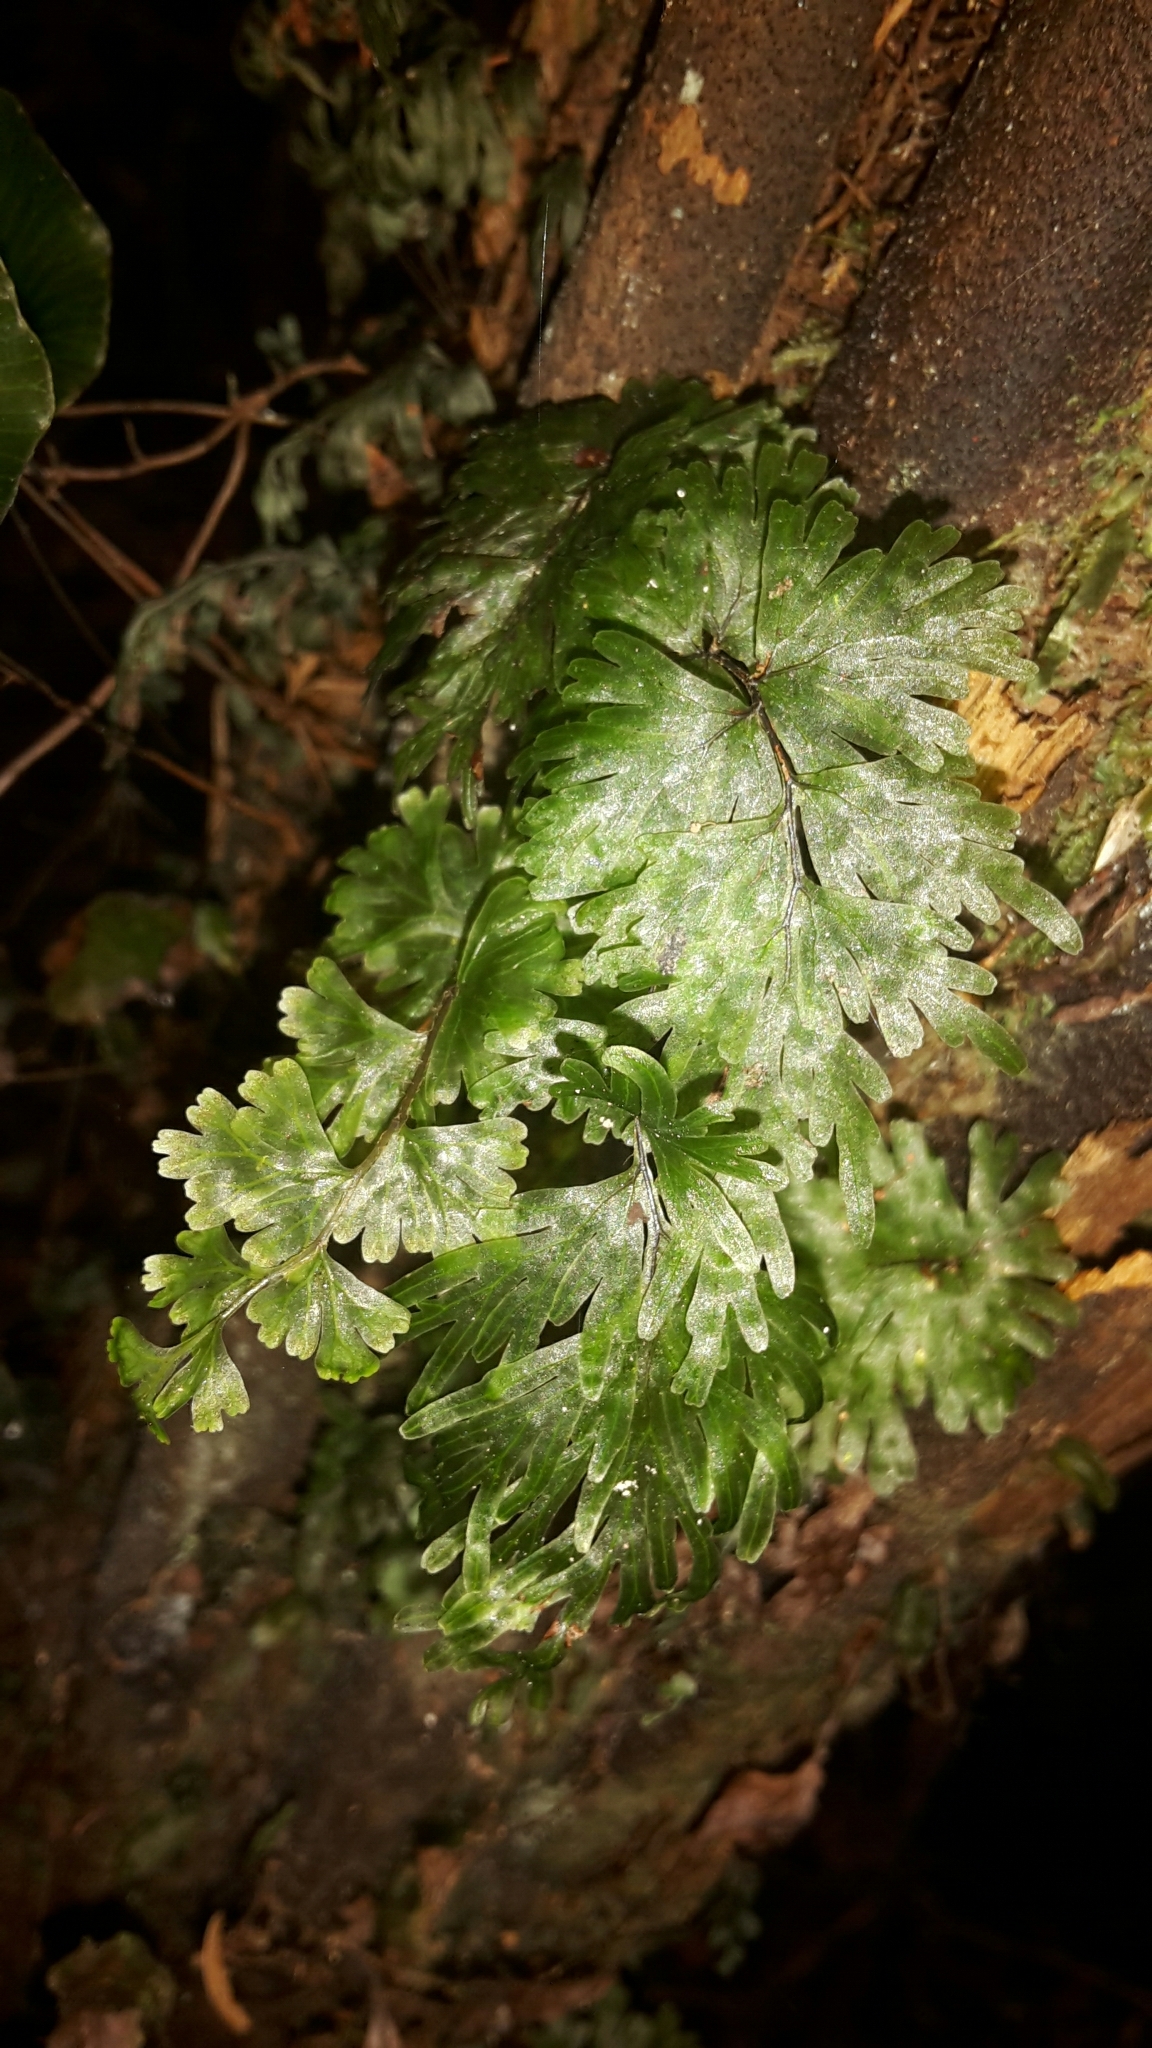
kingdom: Plantae
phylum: Tracheophyta
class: Polypodiopsida
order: Hymenophyllales
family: Hymenophyllaceae
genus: Hymenophyllum
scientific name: Hymenophyllum flabellatum
